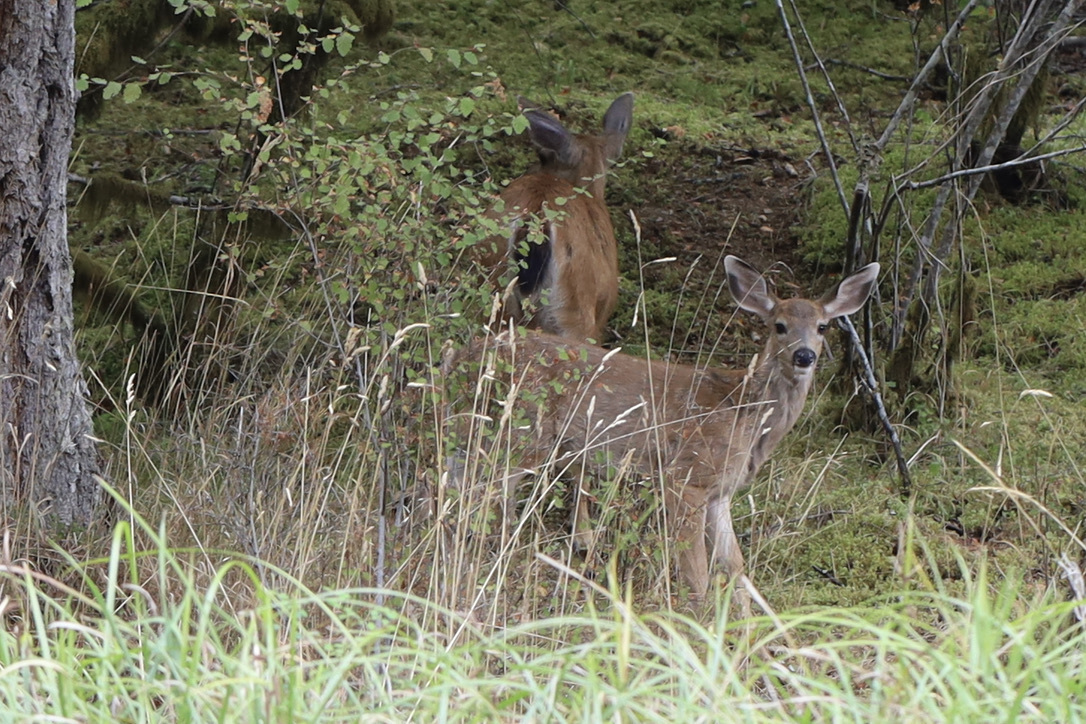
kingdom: Animalia
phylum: Chordata
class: Mammalia
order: Artiodactyla
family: Cervidae
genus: Odocoileus
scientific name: Odocoileus hemionus
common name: Mule deer
